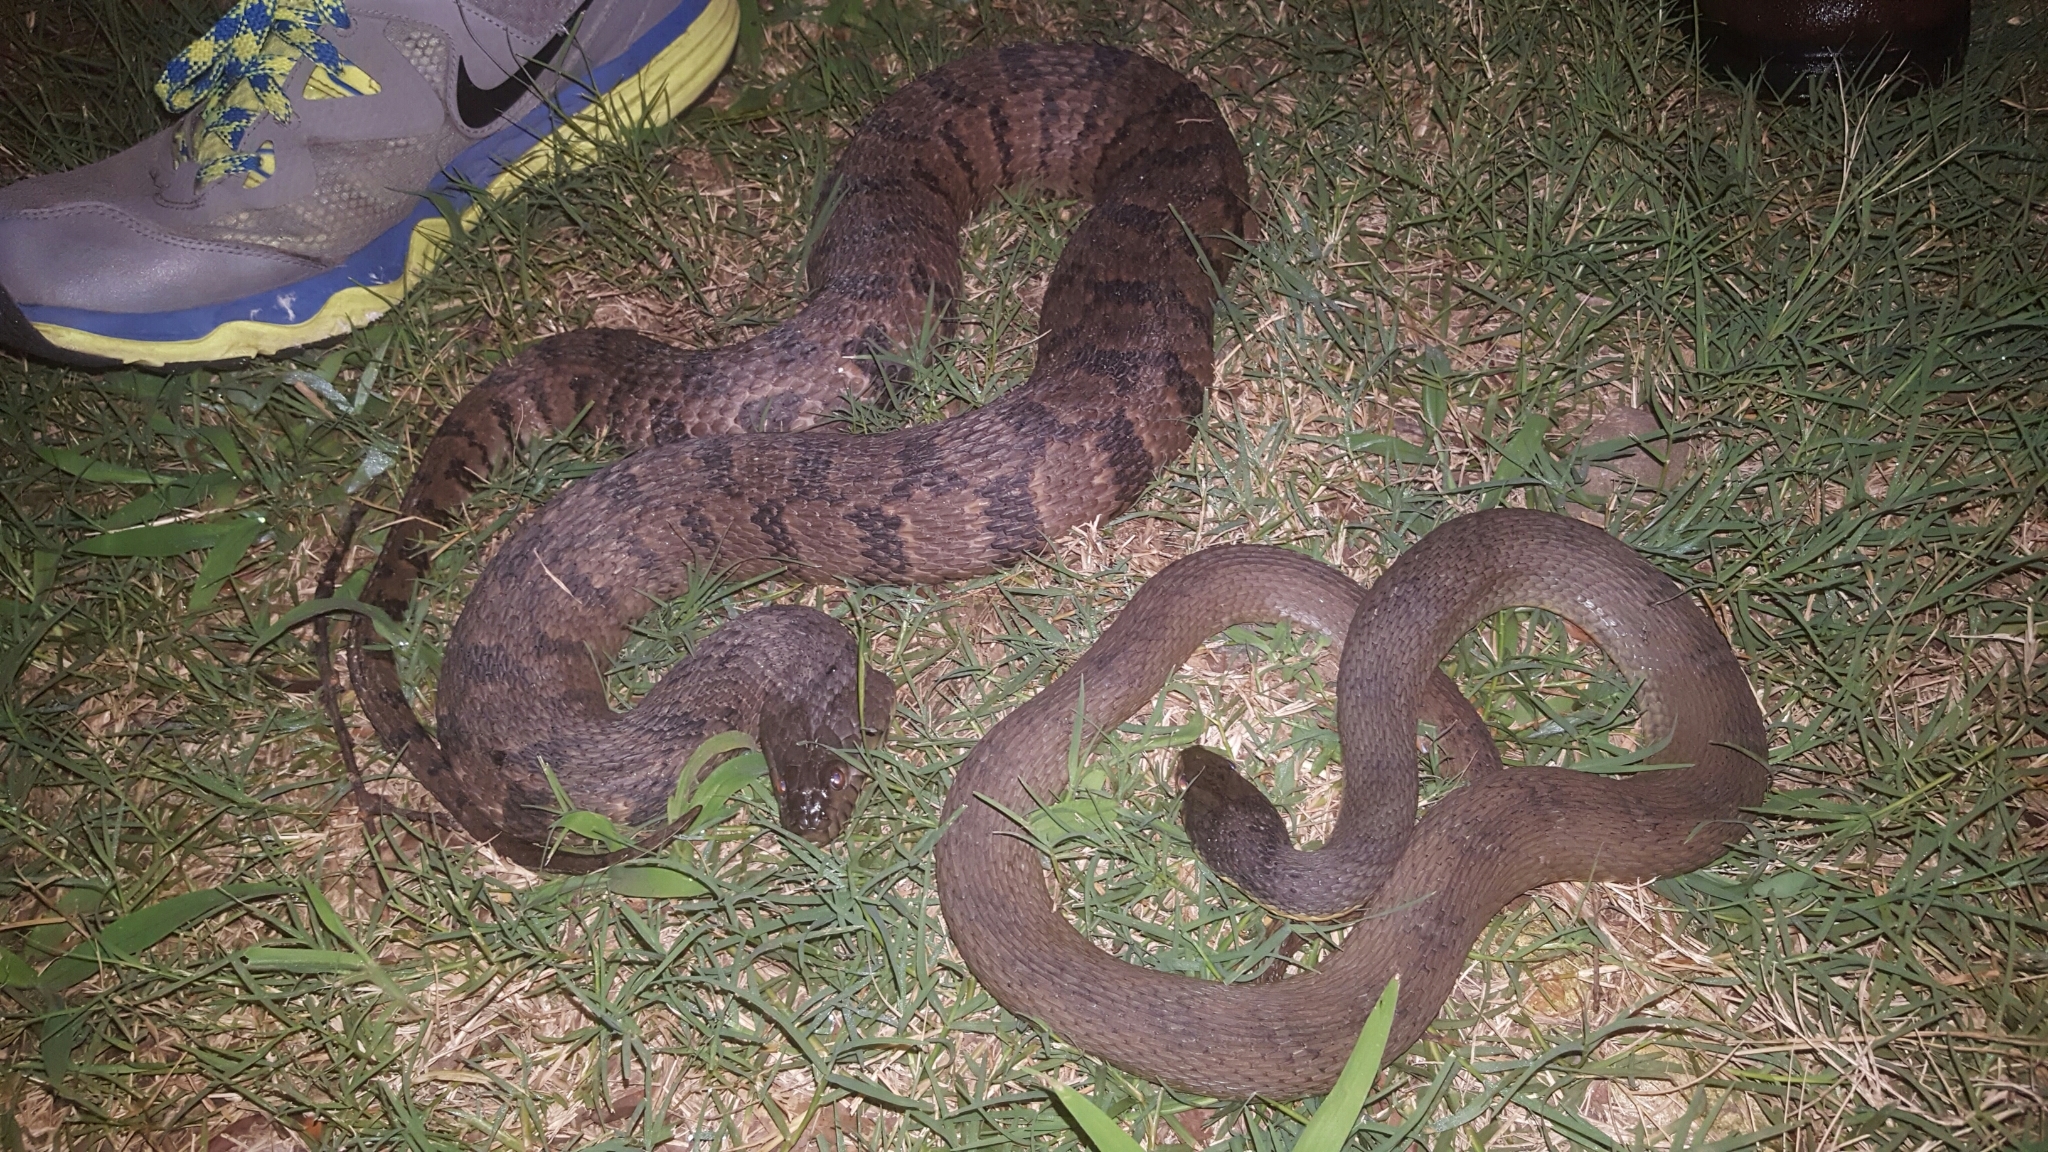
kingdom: Animalia
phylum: Chordata
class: Squamata
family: Colubridae
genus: Nerodia
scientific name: Nerodia erythrogaster
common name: Plainbelly water snake
